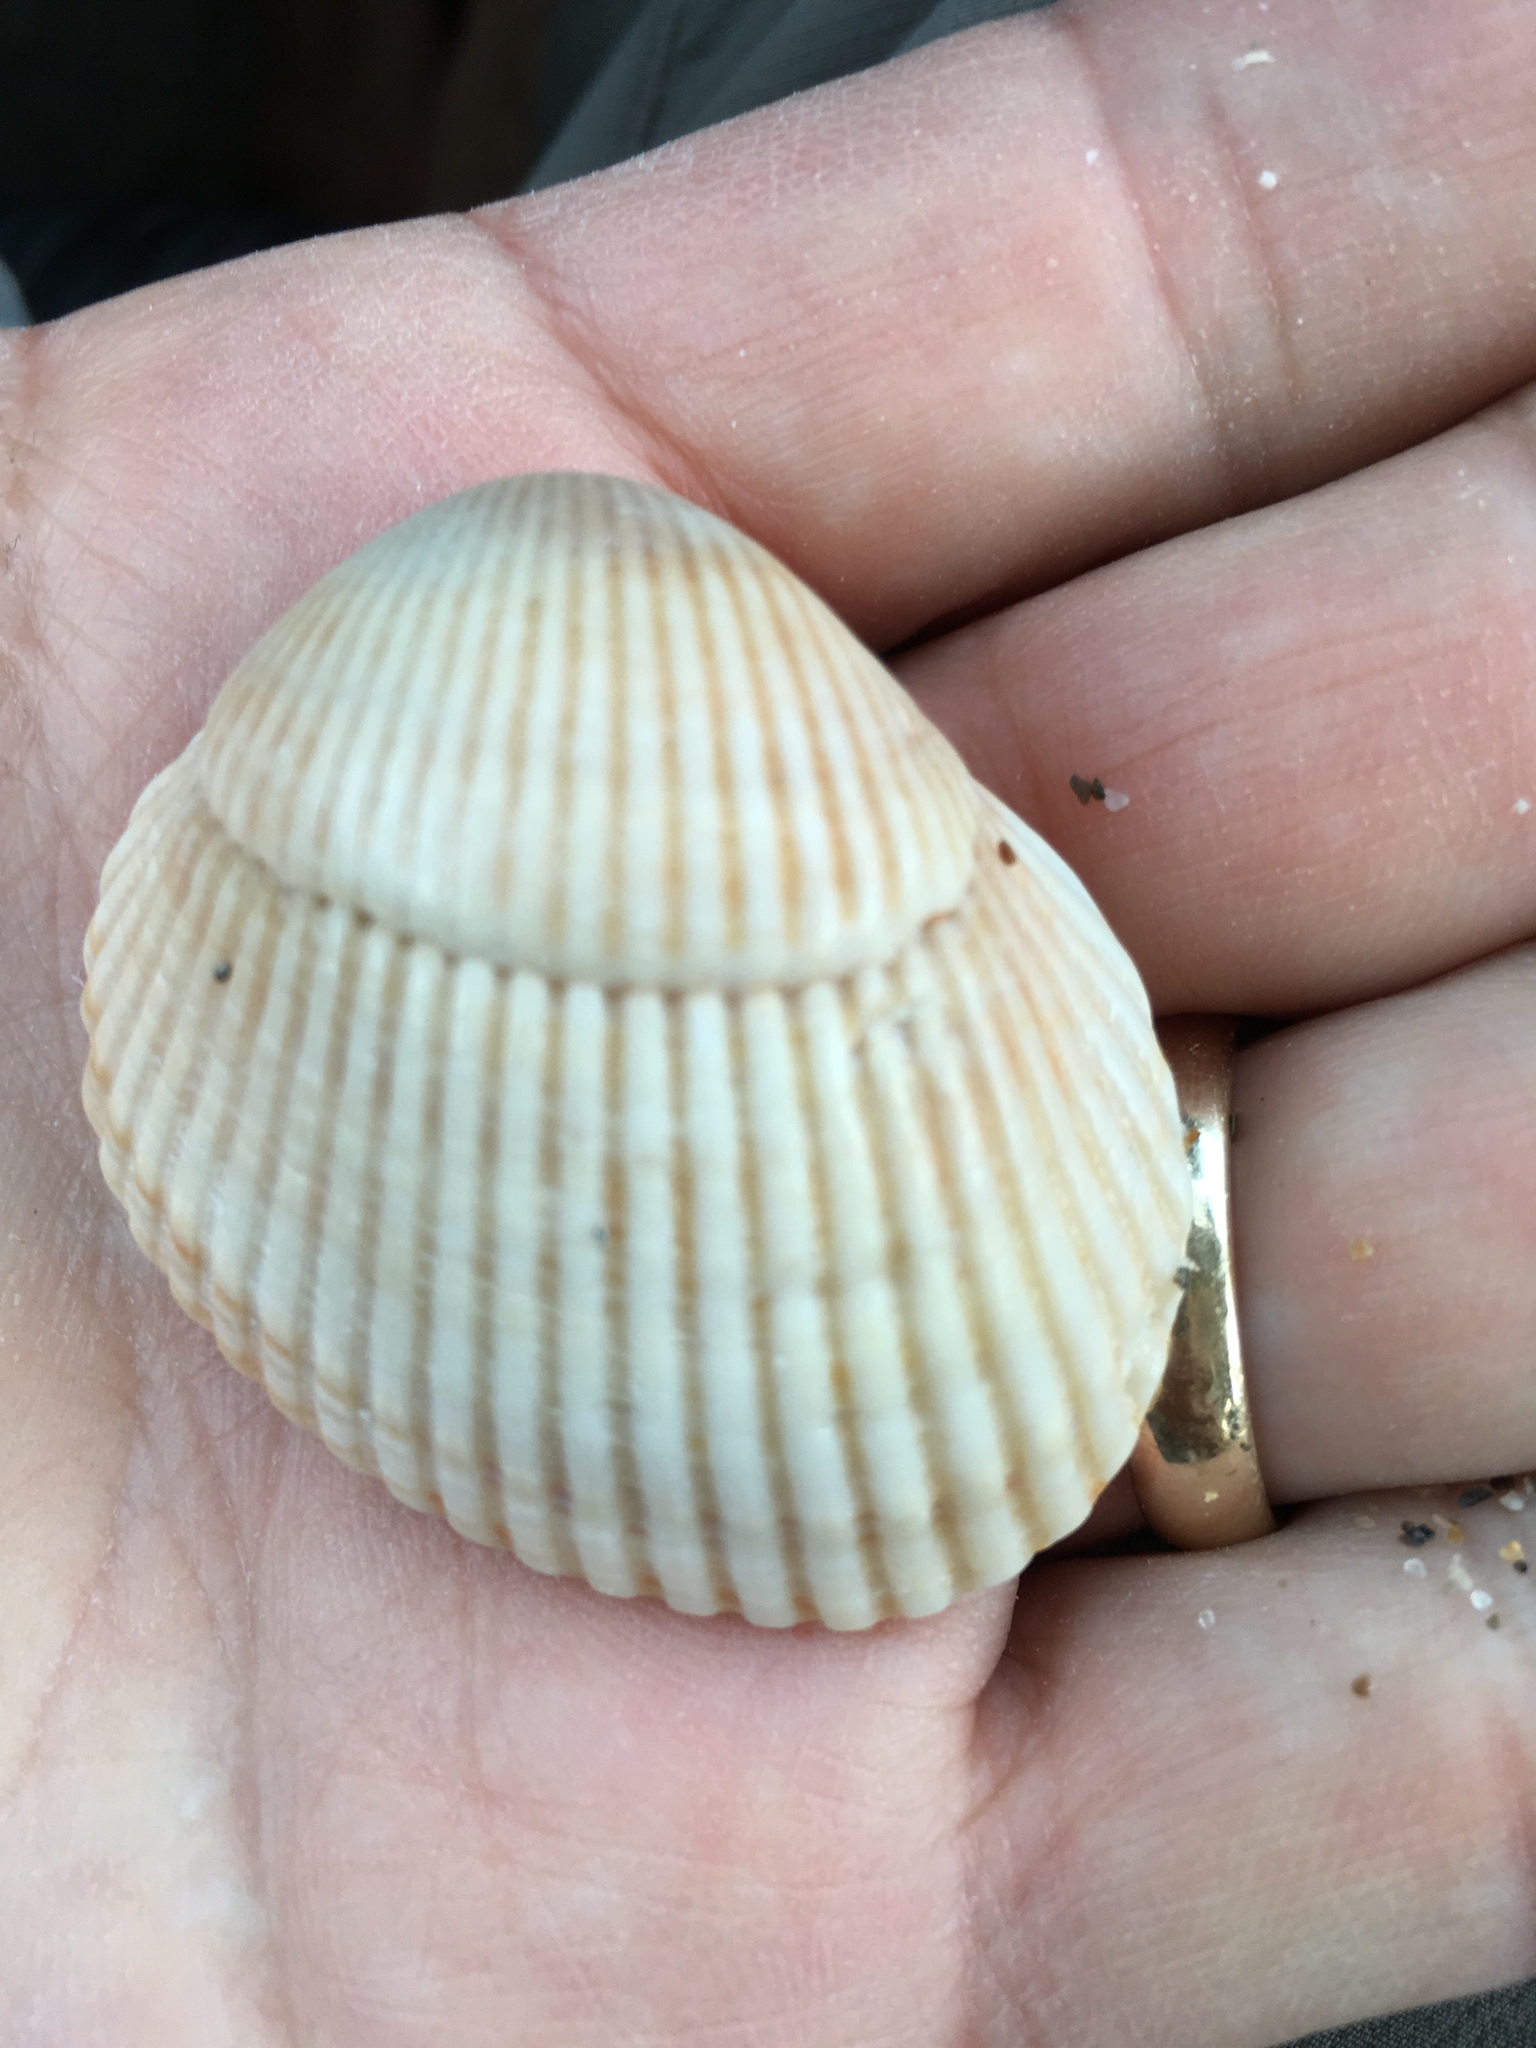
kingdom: Animalia
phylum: Mollusca
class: Bivalvia
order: Arcida
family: Arcidae
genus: Lunarca
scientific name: Lunarca ovalis
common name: Blood ark
